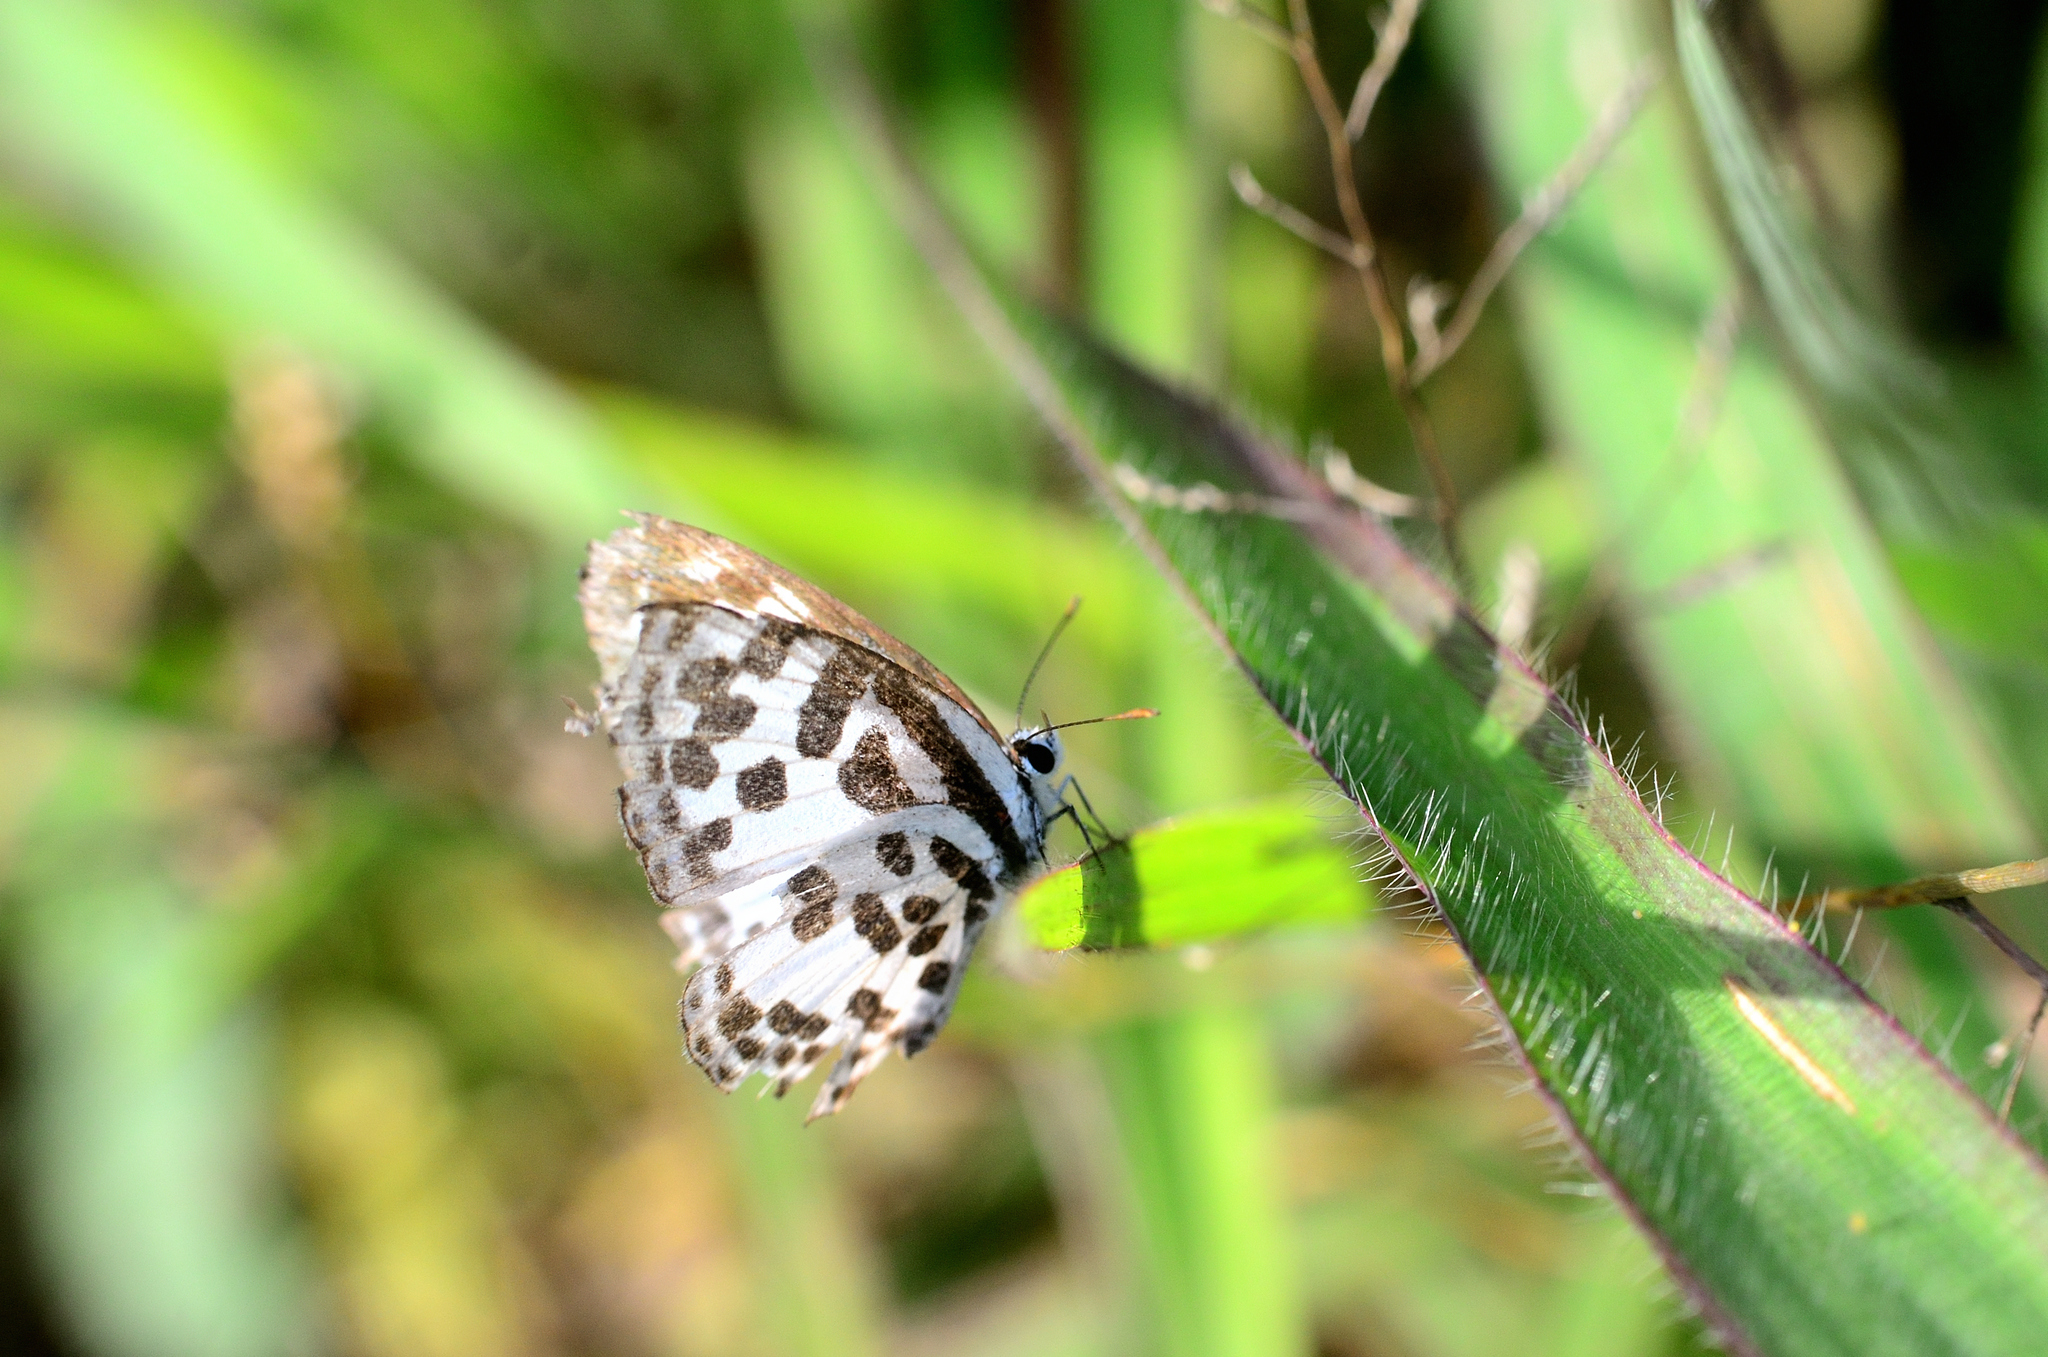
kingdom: Animalia
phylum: Arthropoda
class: Insecta
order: Lepidoptera
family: Lycaenidae
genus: Castalius
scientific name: Castalius rosimon
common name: Common pierrot
